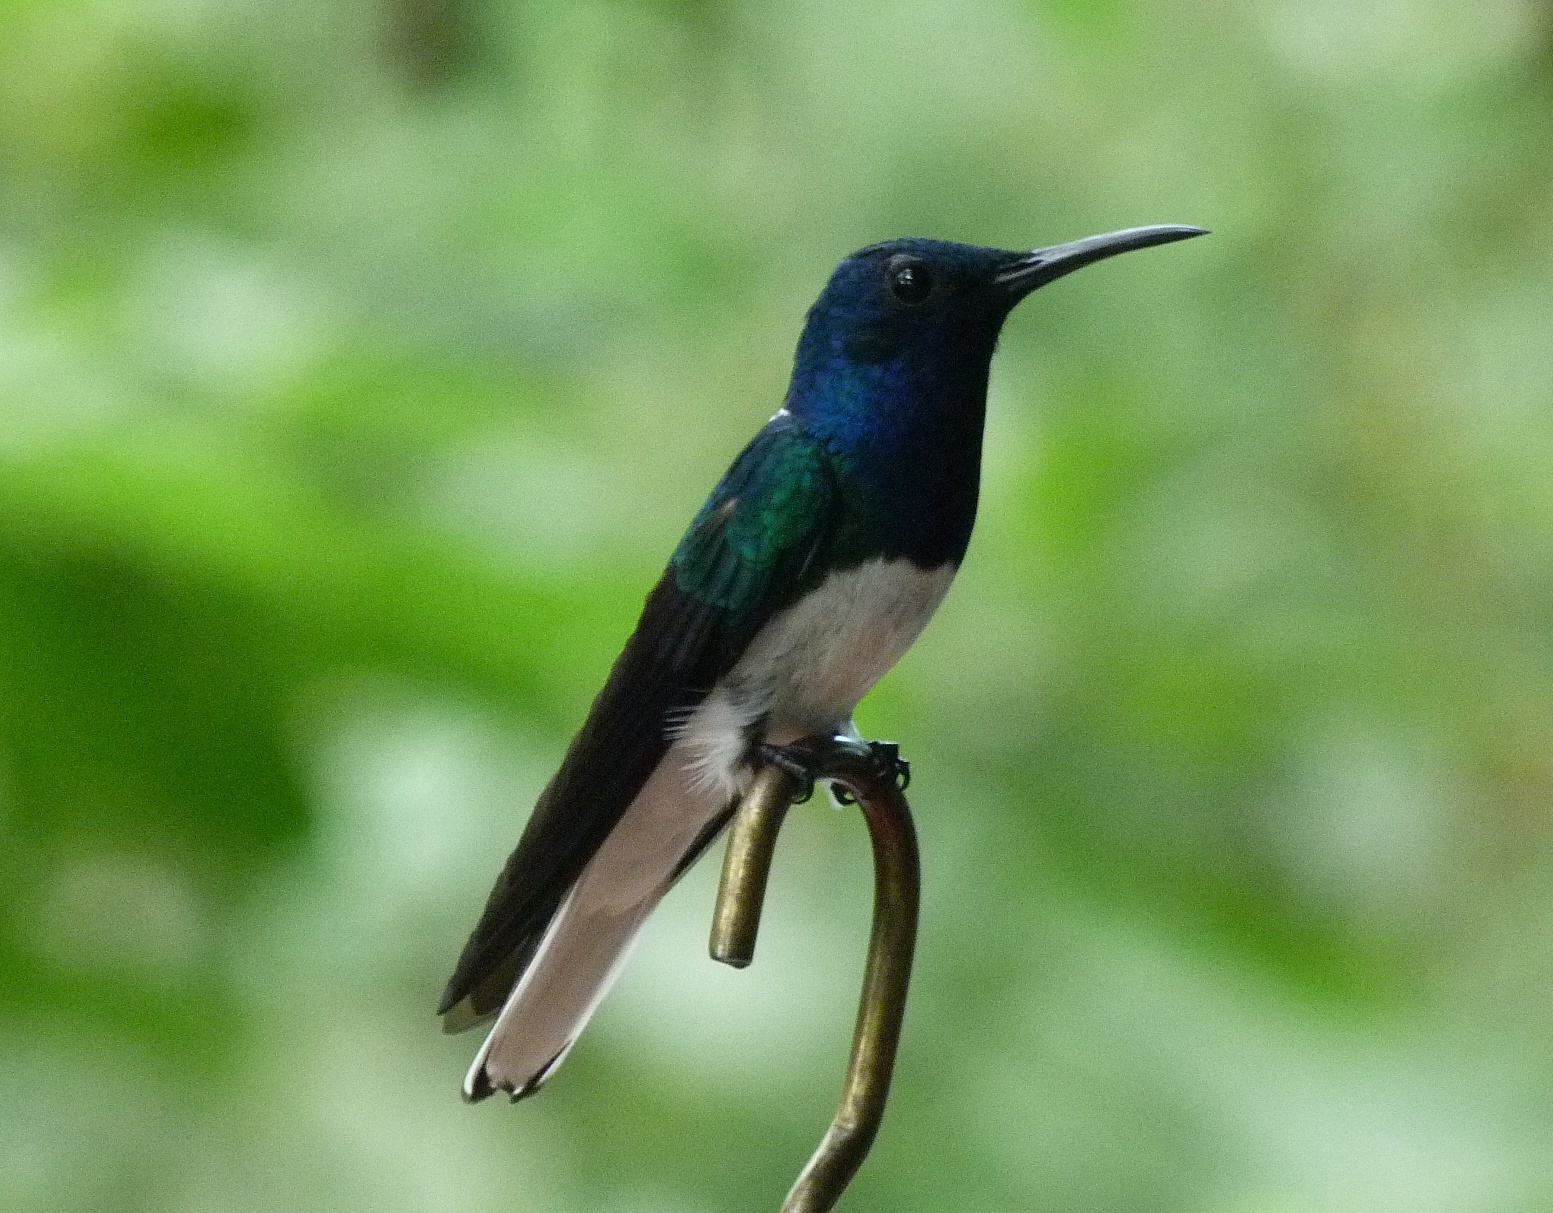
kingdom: Animalia
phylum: Chordata
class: Aves
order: Apodiformes
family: Trochilidae
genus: Florisuga
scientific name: Florisuga mellivora
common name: White-necked jacobin
